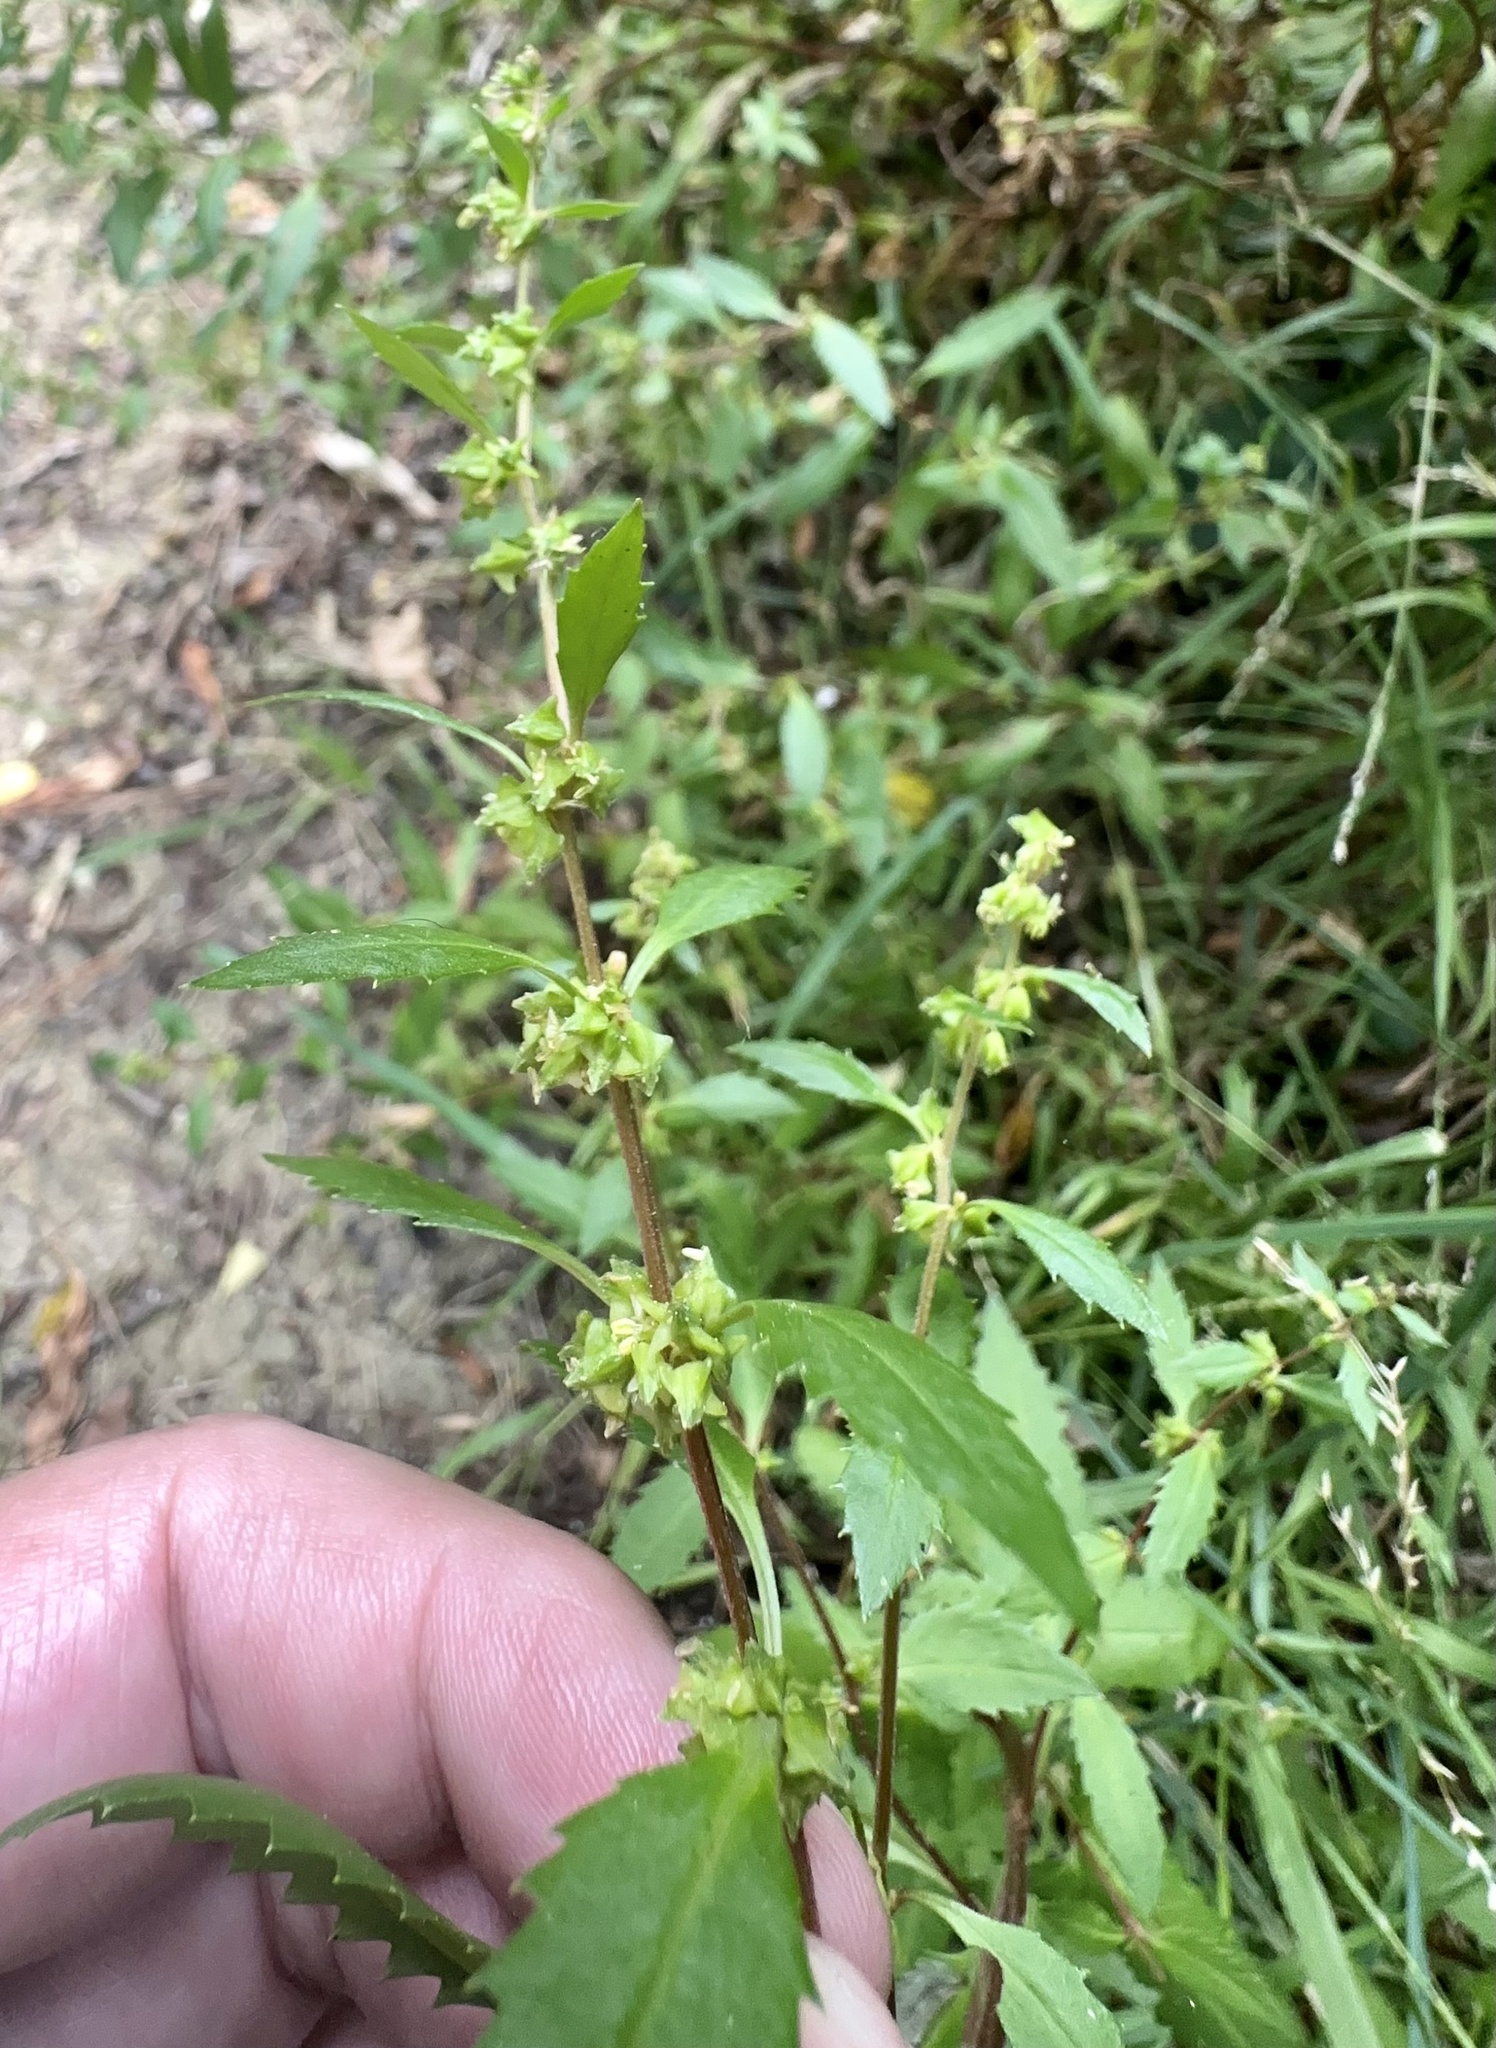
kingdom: Plantae
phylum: Tracheophyta
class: Magnoliopsida
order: Saxifragales
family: Haloragaceae
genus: Haloragis
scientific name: Haloragis erecta
